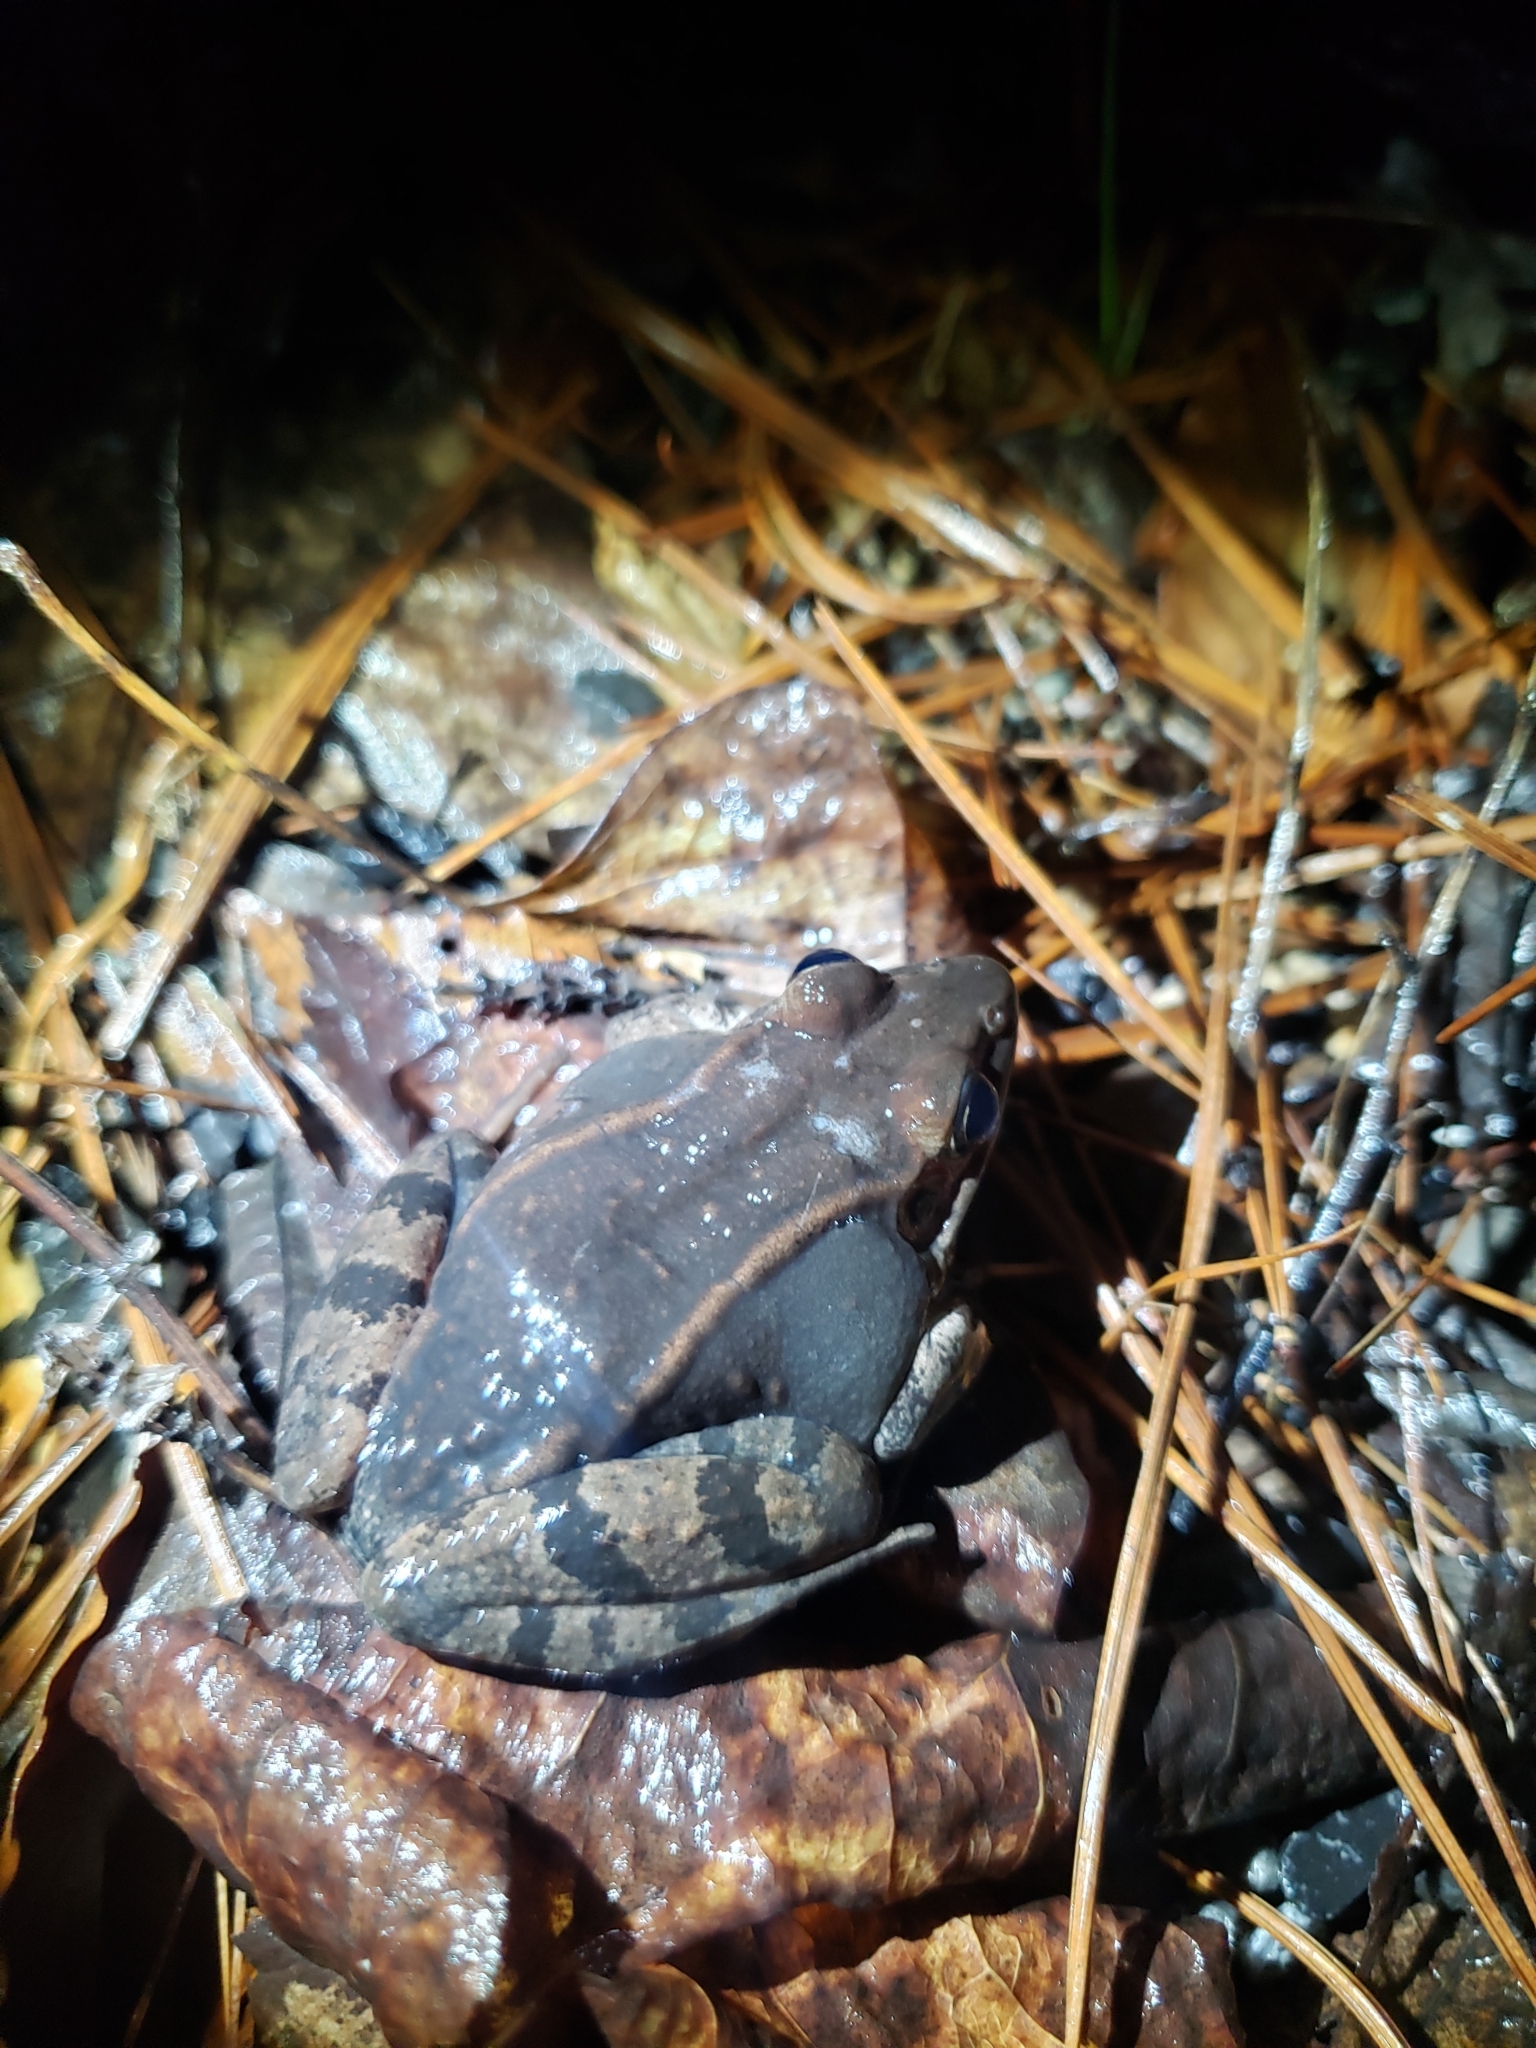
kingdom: Animalia
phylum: Chordata
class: Amphibia
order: Anura
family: Ranidae
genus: Lithobates
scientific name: Lithobates sylvaticus
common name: Wood frog
